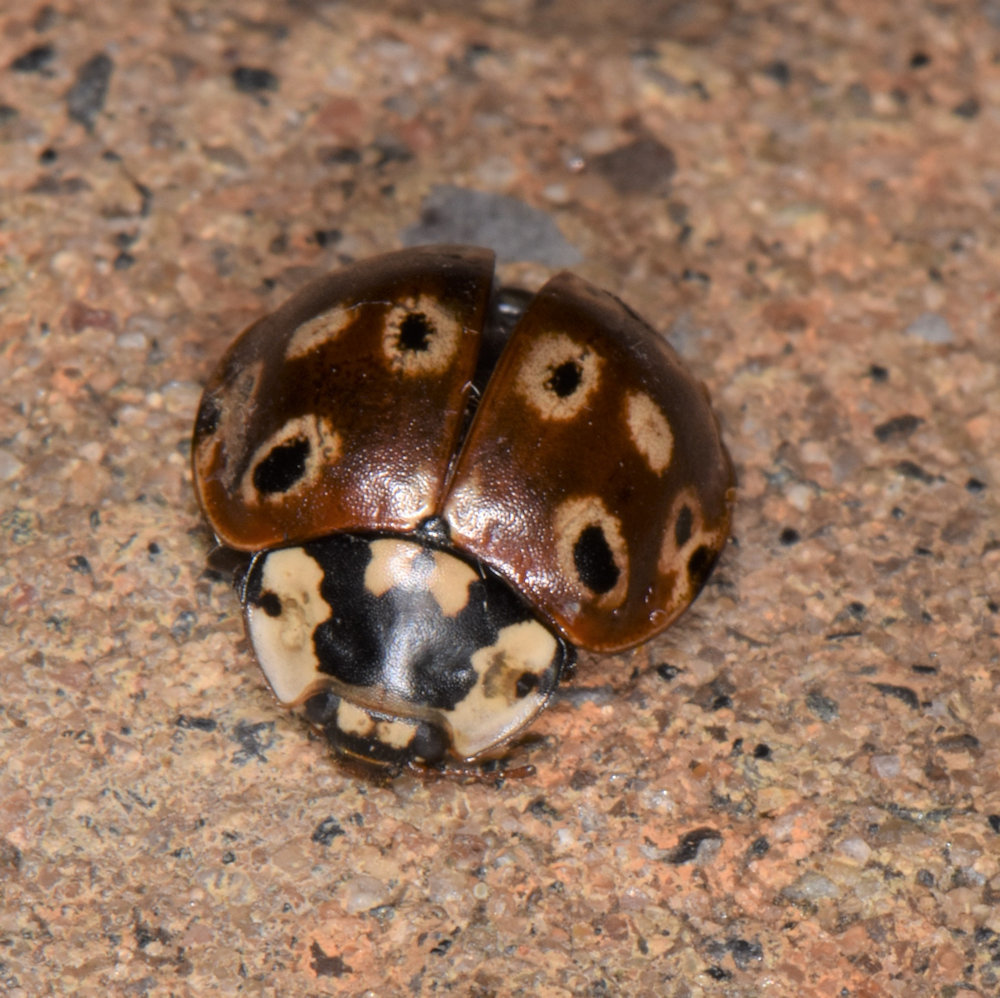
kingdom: Animalia
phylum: Arthropoda
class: Insecta
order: Coleoptera
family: Coccinellidae
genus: Anatis
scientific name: Anatis mali
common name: Eye-spotted lady beetle
